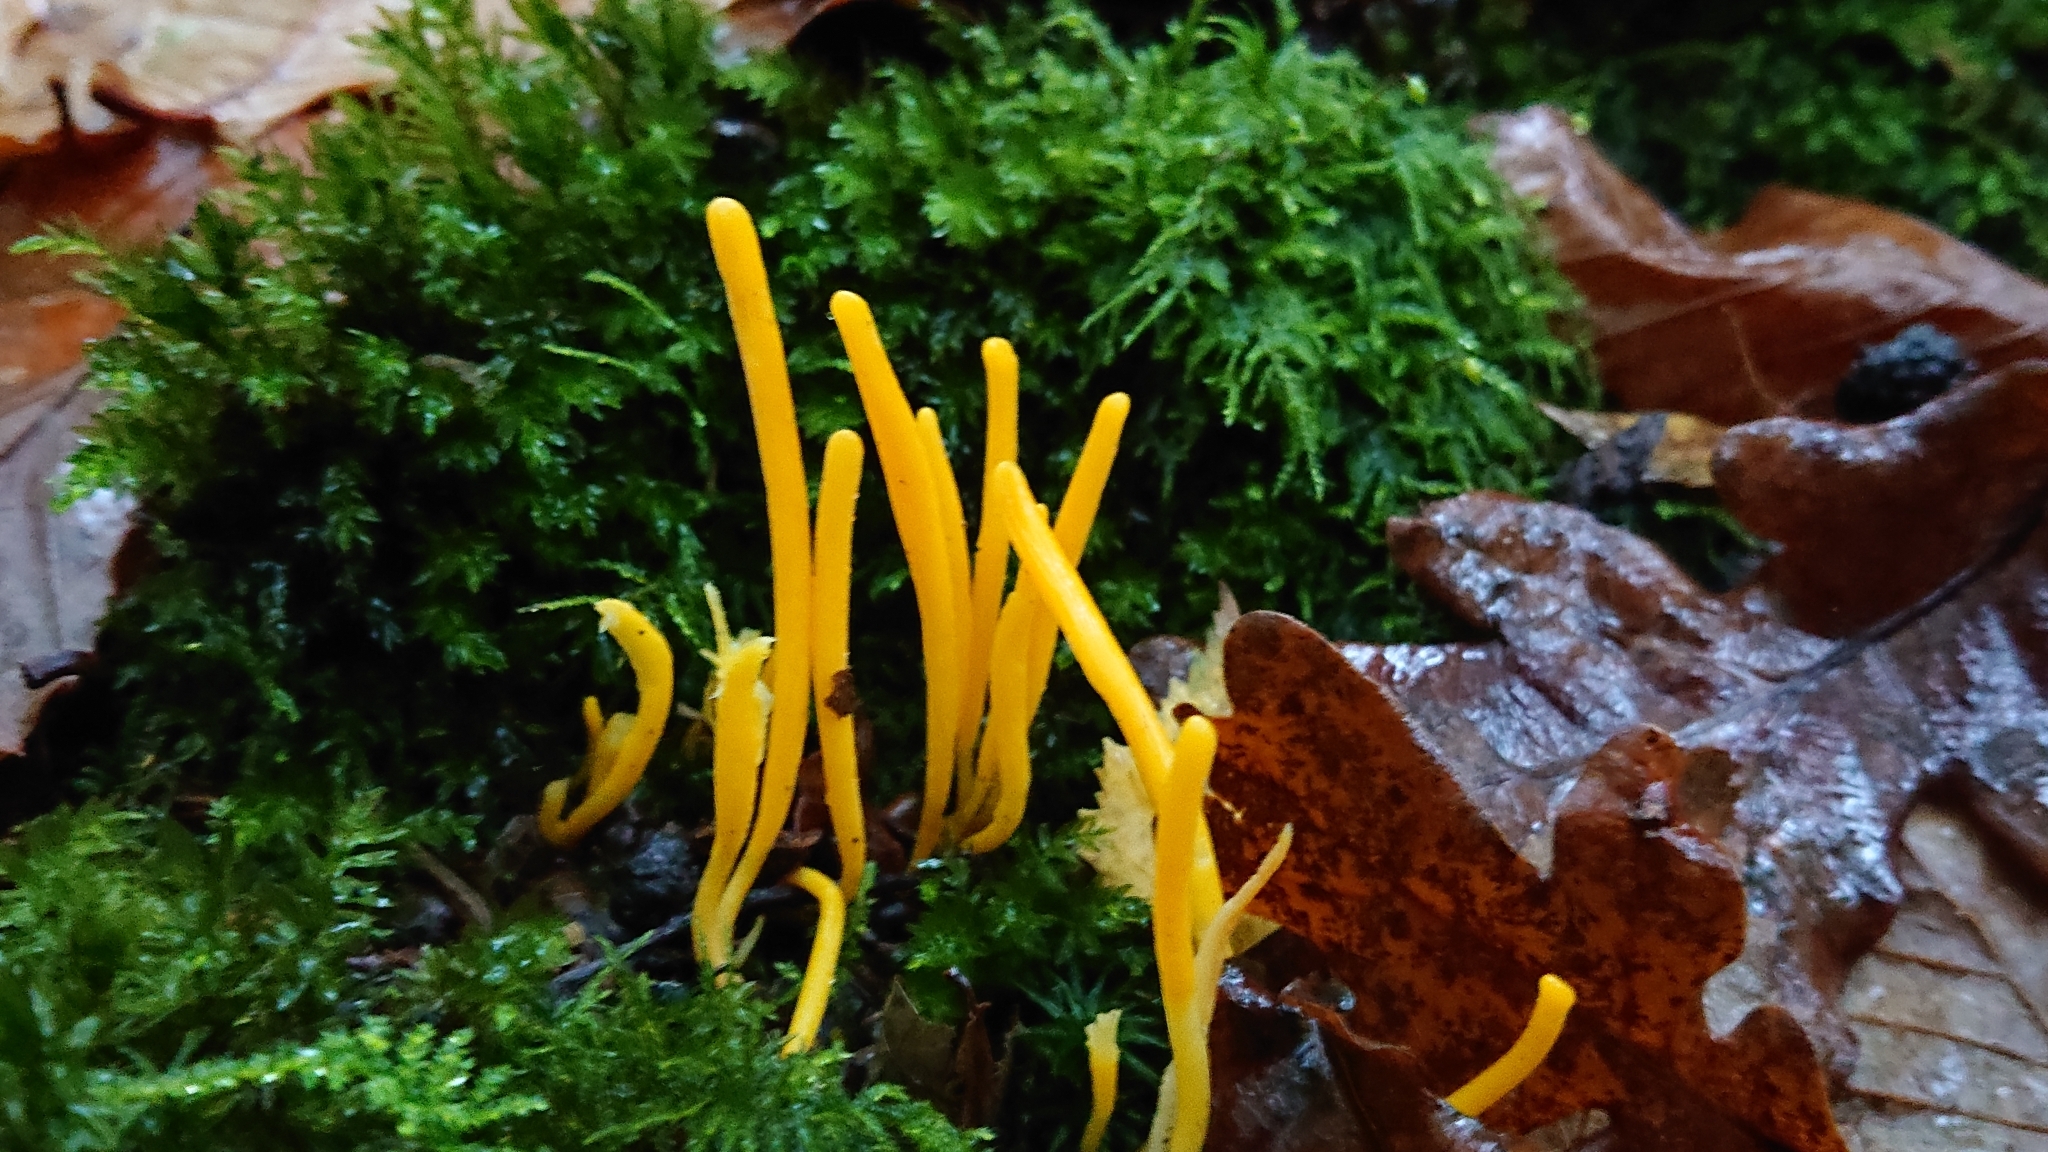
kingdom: Fungi
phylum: Basidiomycota
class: Agaricomycetes
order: Agaricales
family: Clavariaceae
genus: Clavulinopsis
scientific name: Clavulinopsis helvola
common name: Yellow club
